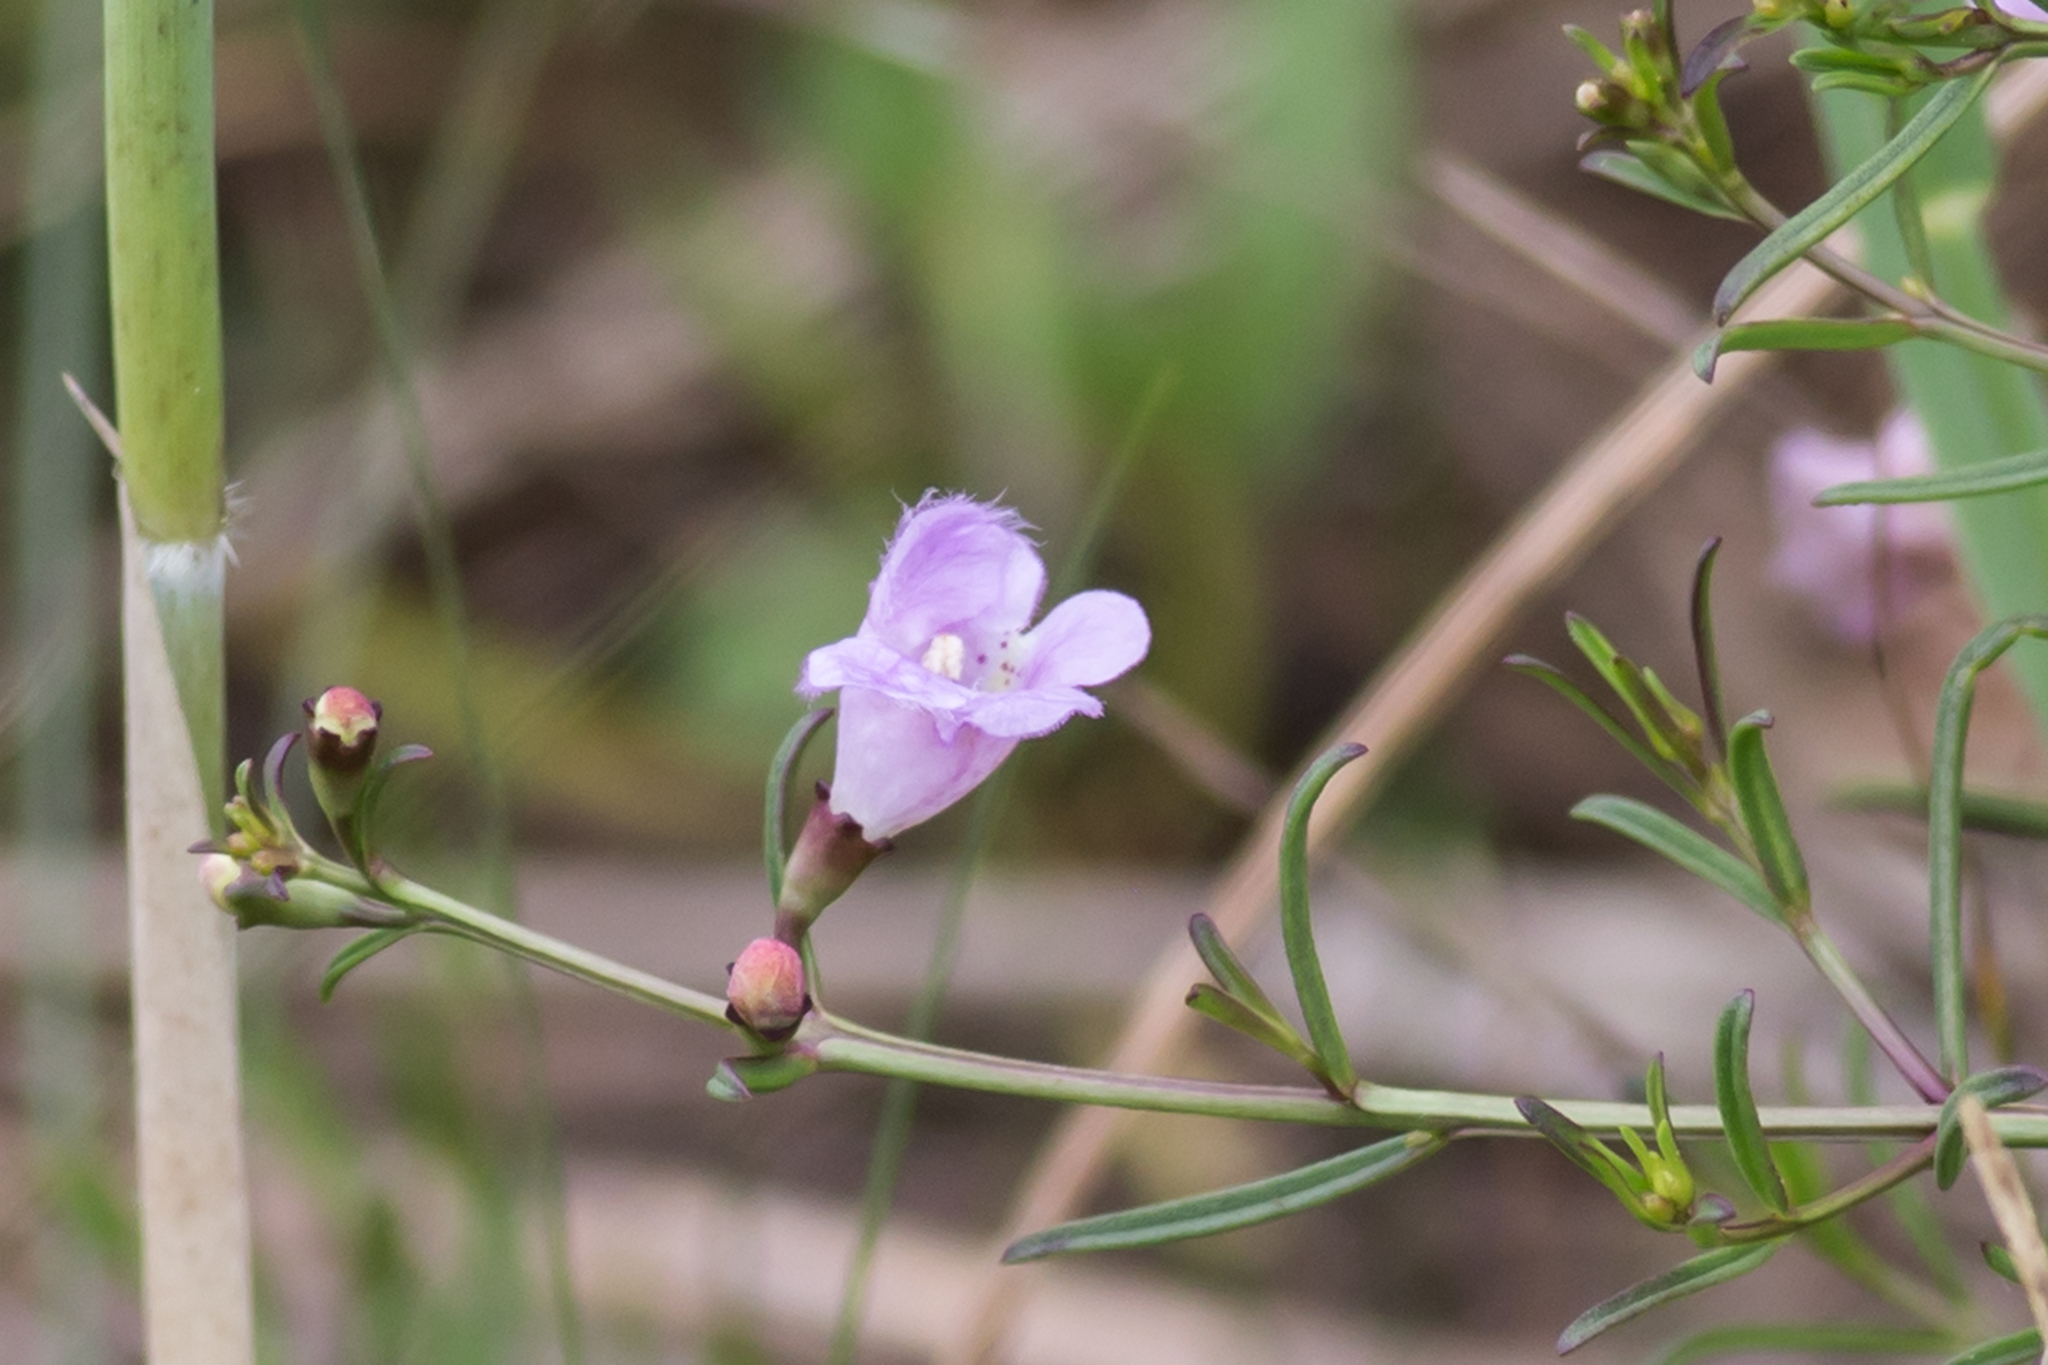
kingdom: Plantae
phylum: Tracheophyta
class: Magnoliopsida
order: Lamiales
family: Orobanchaceae
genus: Agalinis
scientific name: Agalinis maritima
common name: Saltmarsh agalinis
